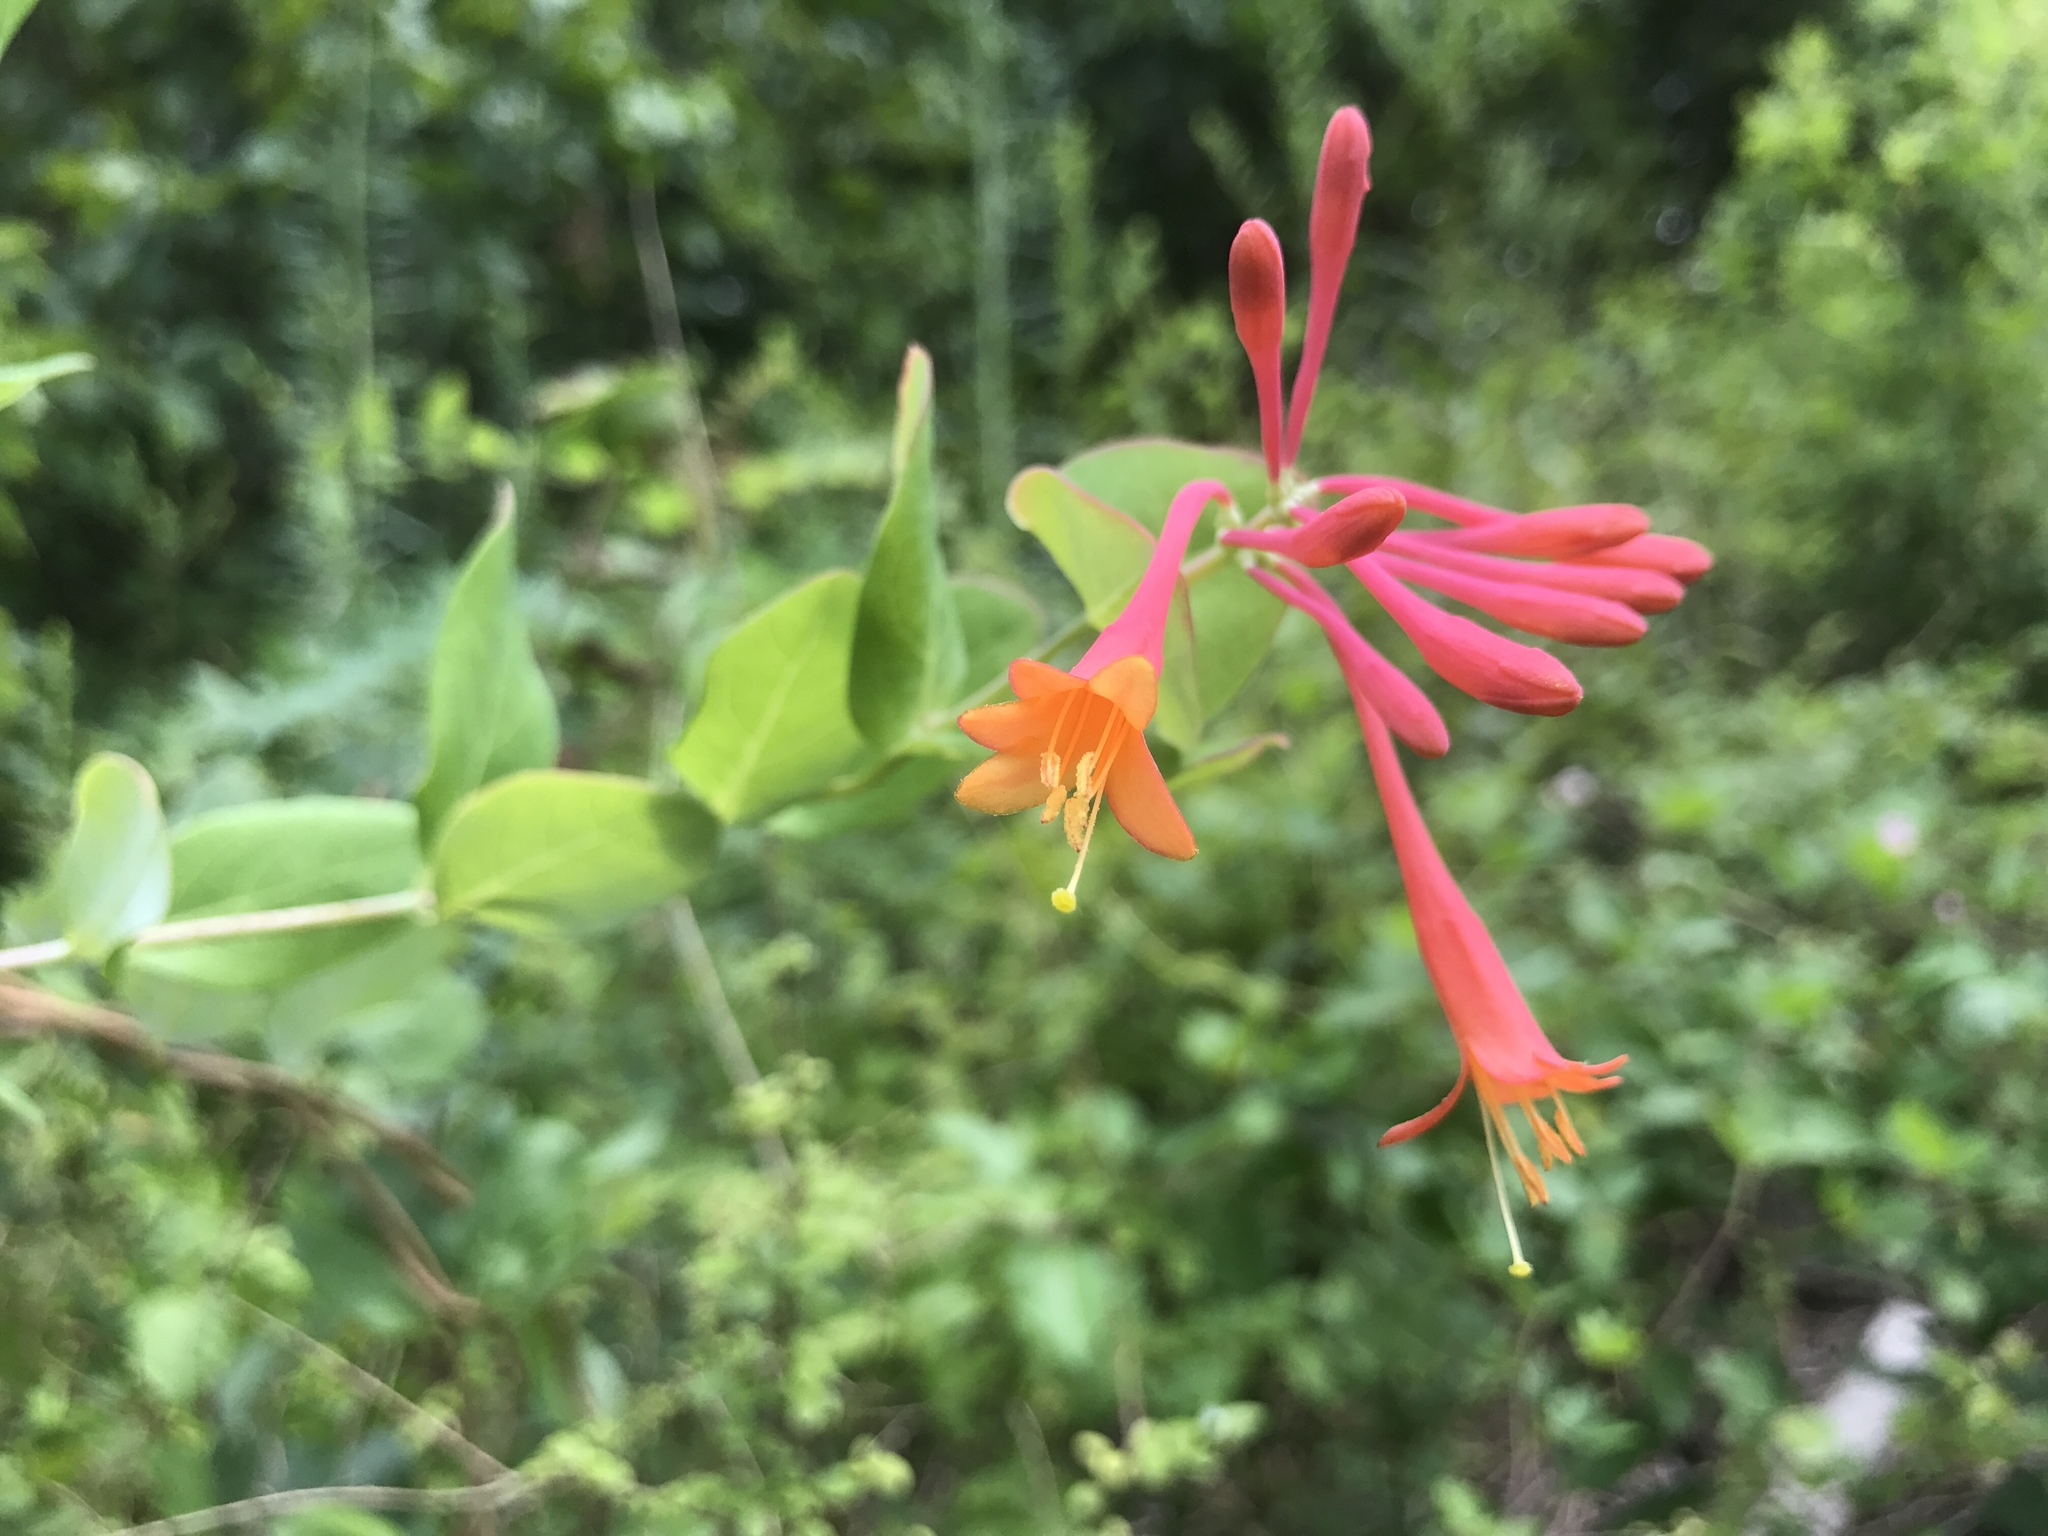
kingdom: Plantae
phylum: Tracheophyta
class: Magnoliopsida
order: Dipsacales
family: Caprifoliaceae
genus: Lonicera
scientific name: Lonicera sempervirens
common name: Coral honeysuckle
